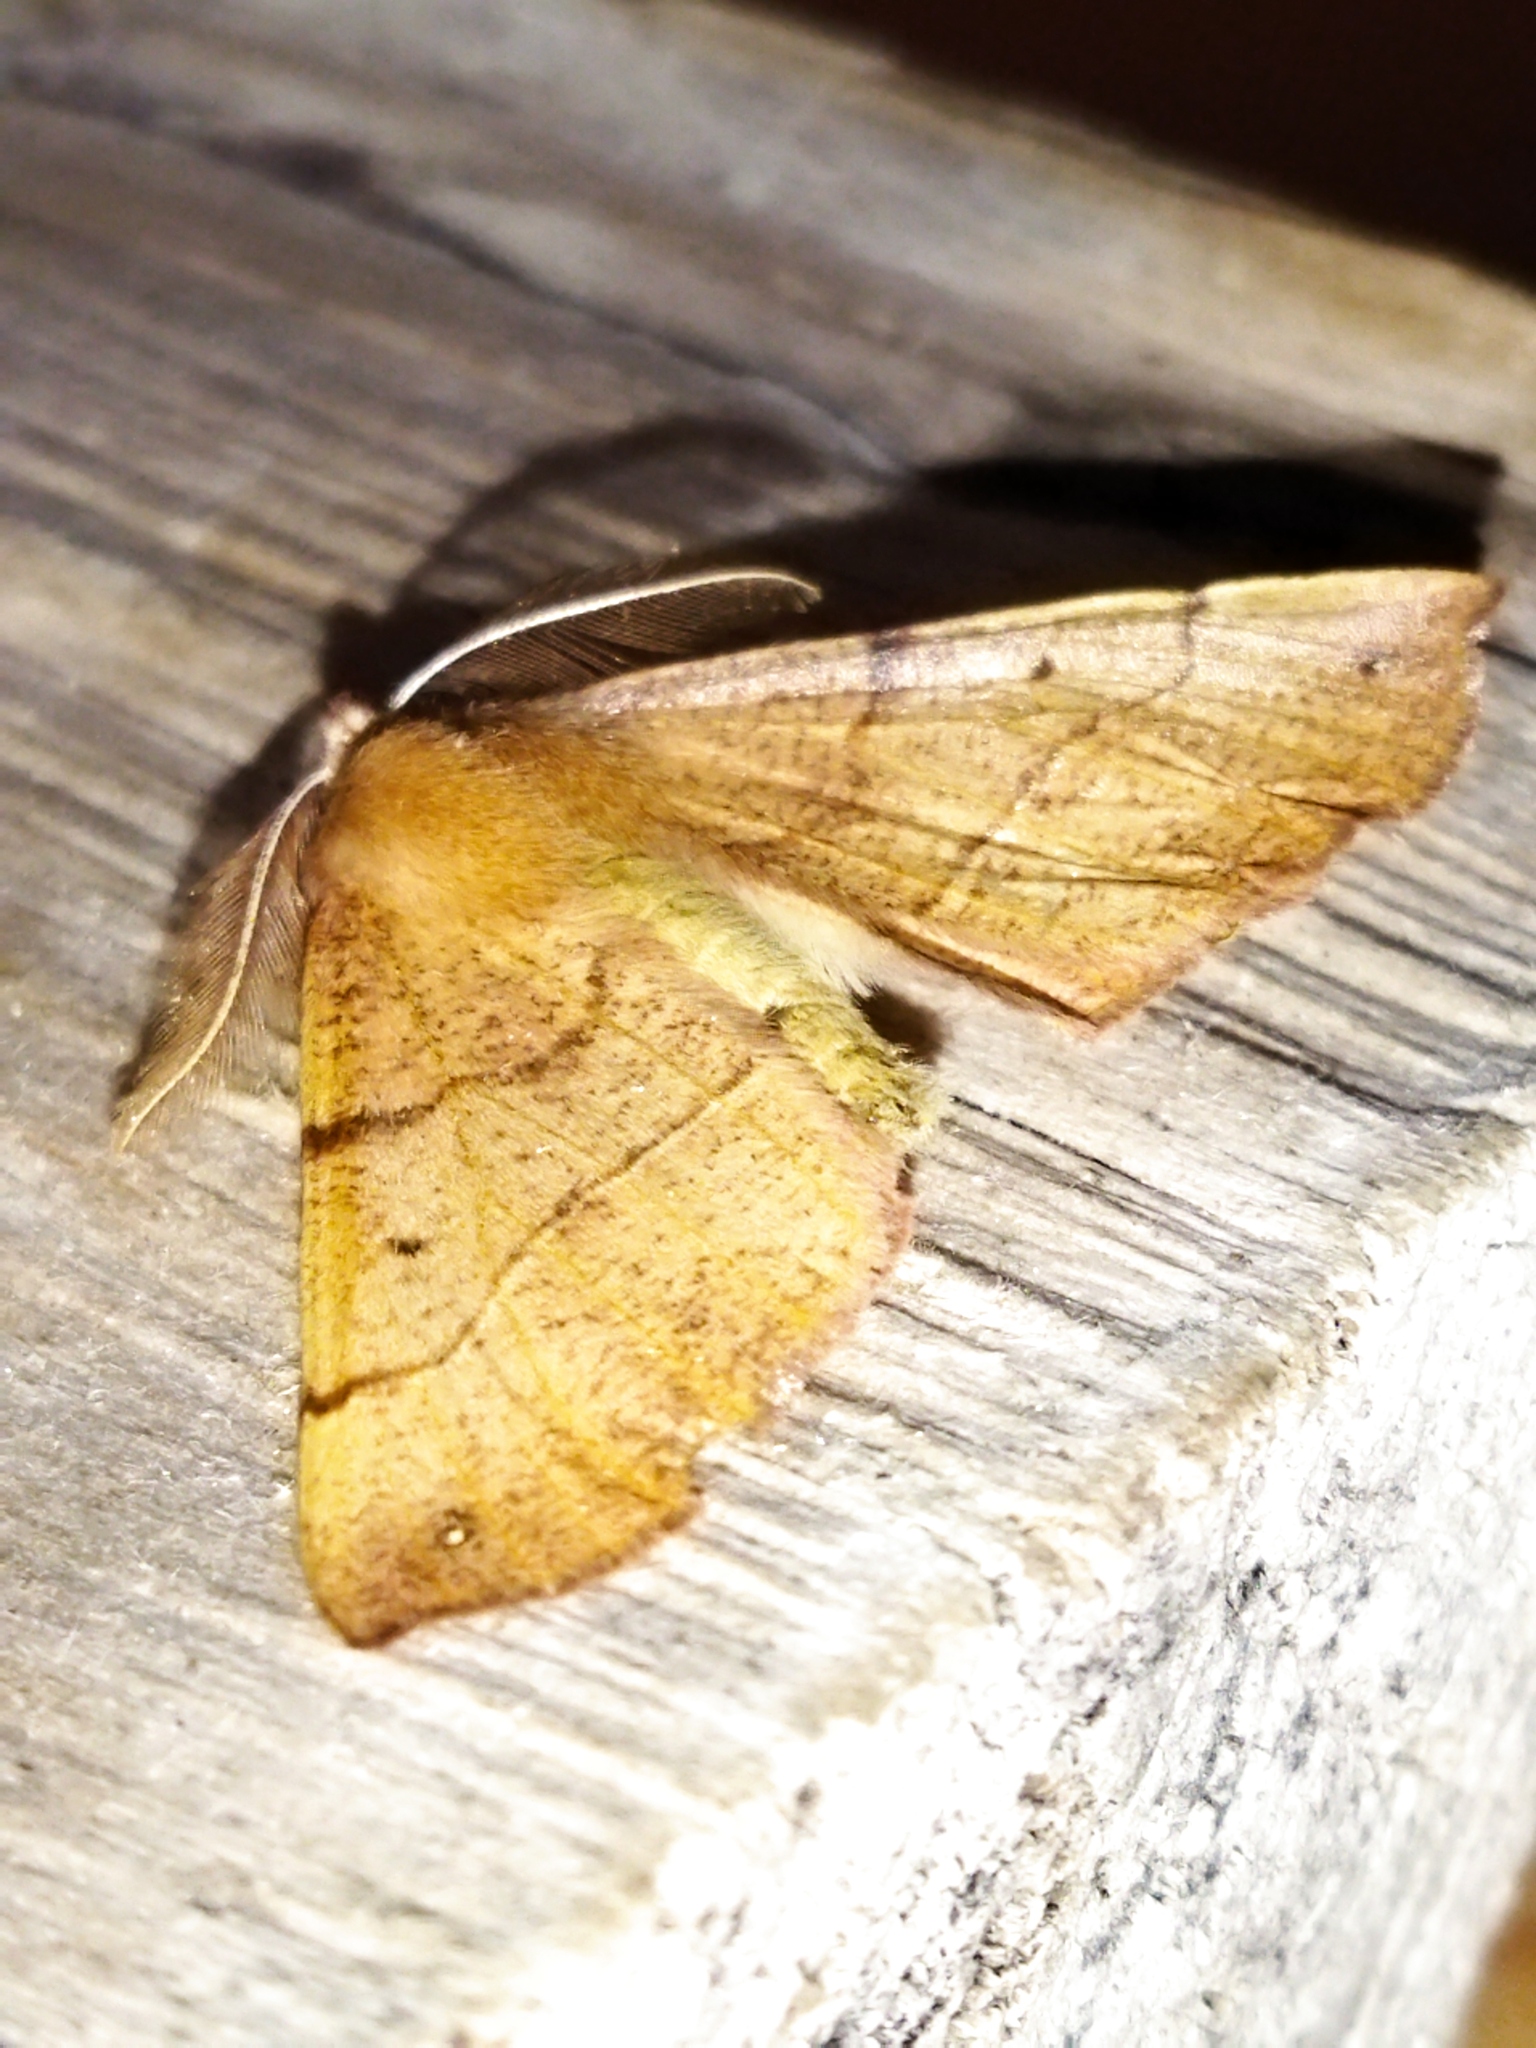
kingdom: Animalia
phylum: Arthropoda
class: Insecta
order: Lepidoptera
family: Geometridae
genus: Colotois
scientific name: Colotois pennaria
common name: Feathered thorn
